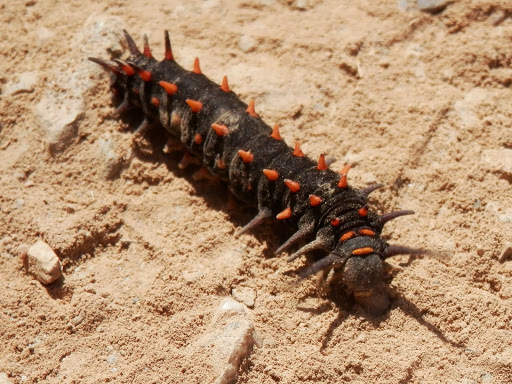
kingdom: Animalia
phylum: Arthropoda
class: Insecta
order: Lepidoptera
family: Papilionidae
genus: Battus
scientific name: Battus philenor
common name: Pipevine swallowtail
